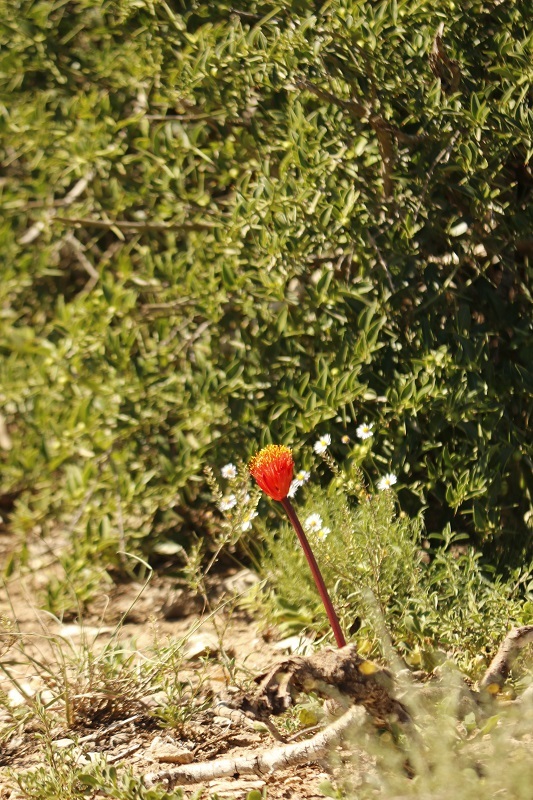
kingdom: Plantae
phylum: Tracheophyta
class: Liliopsida
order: Asparagales
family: Amaryllidaceae
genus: Haemanthus
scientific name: Haemanthus sanguineus
